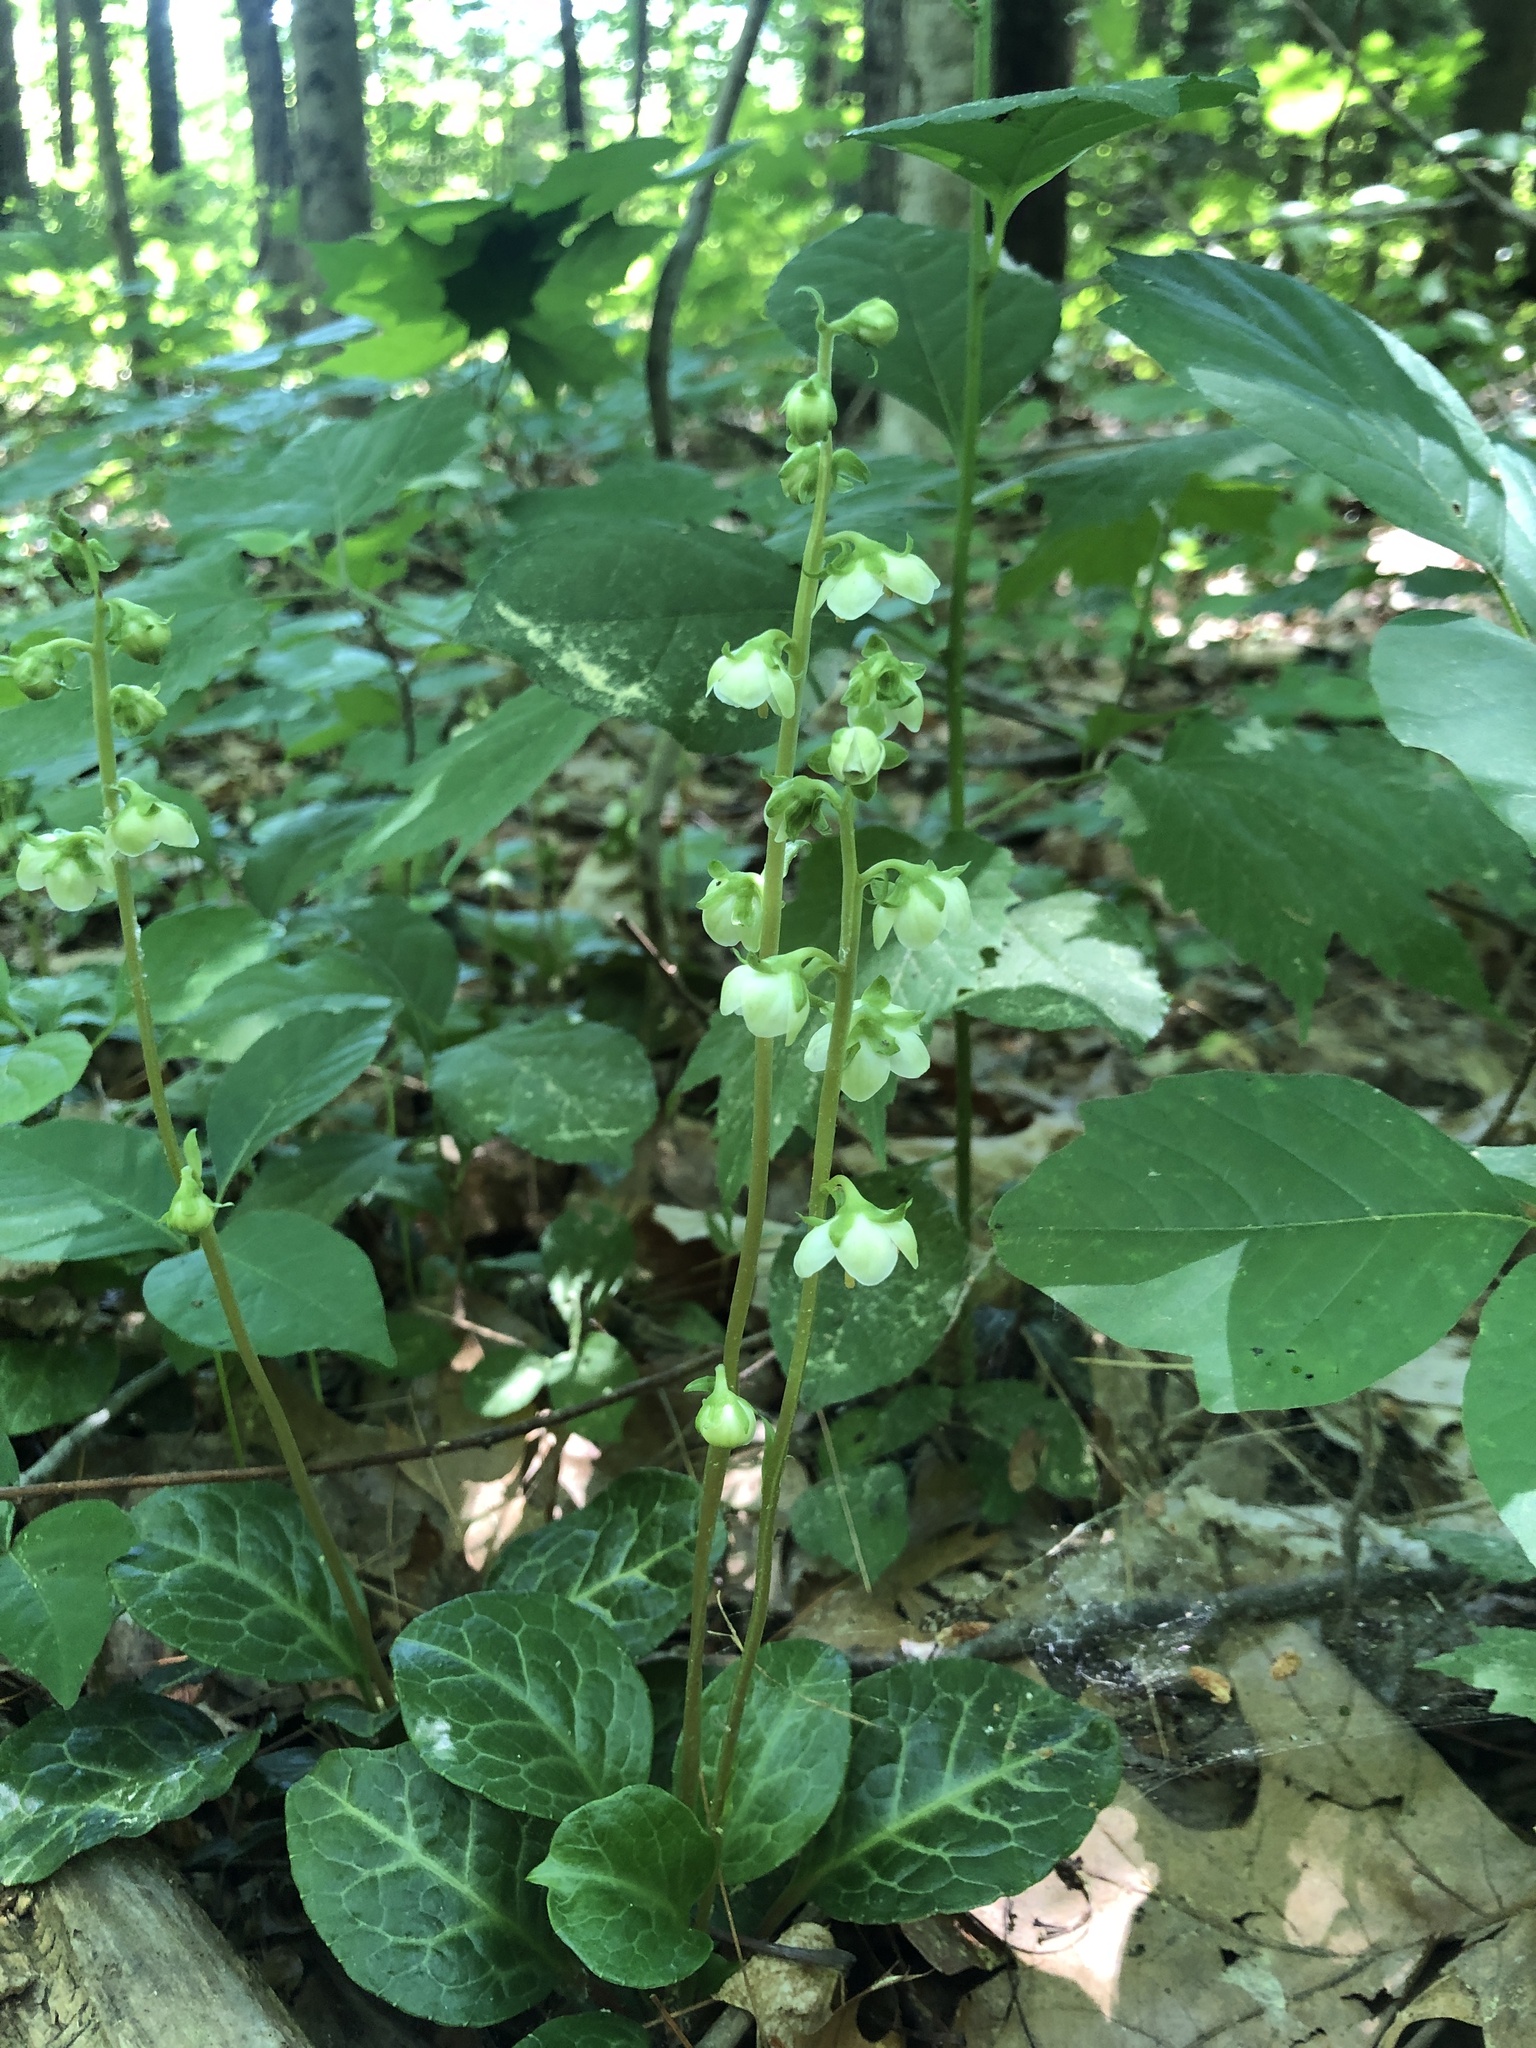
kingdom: Plantae
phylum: Tracheophyta
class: Magnoliopsida
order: Ericales
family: Ericaceae
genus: Pyrola
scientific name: Pyrola americana
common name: American wintergreen
